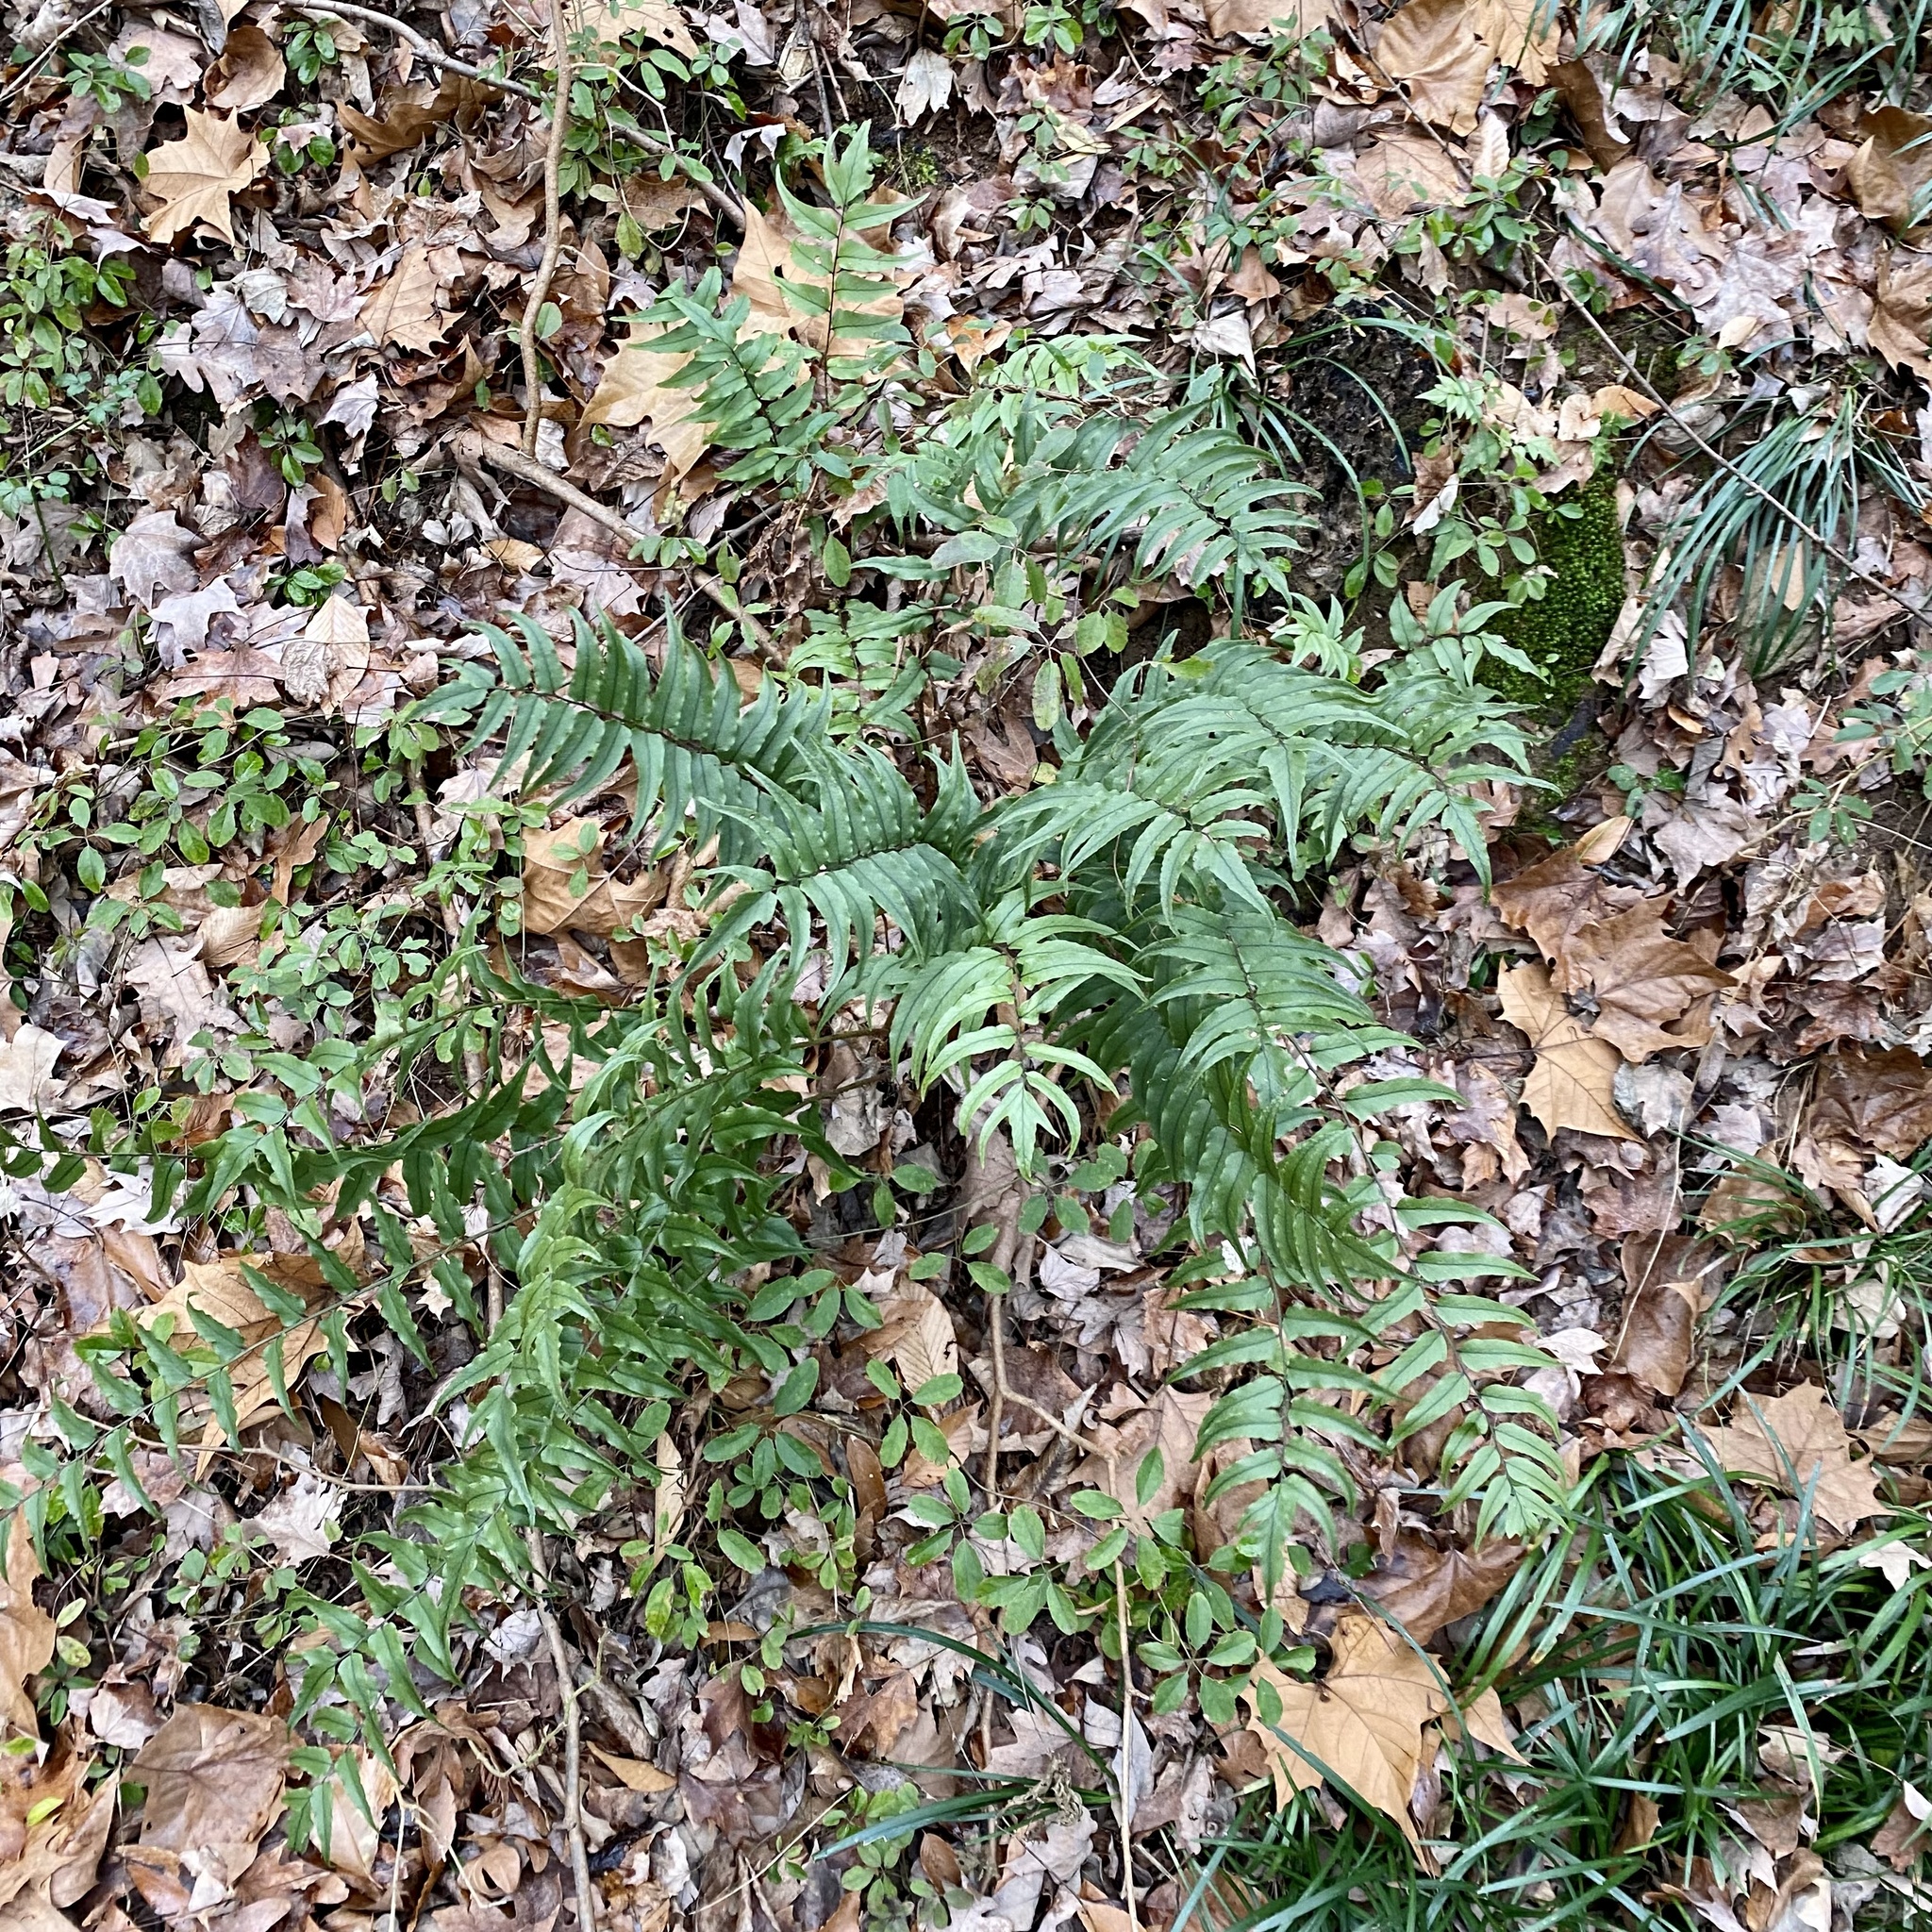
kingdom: Plantae
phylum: Tracheophyta
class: Polypodiopsida
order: Polypodiales
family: Dryopteridaceae
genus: Cyrtomium
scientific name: Cyrtomium fortunei
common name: Asian netvein hollyfern
